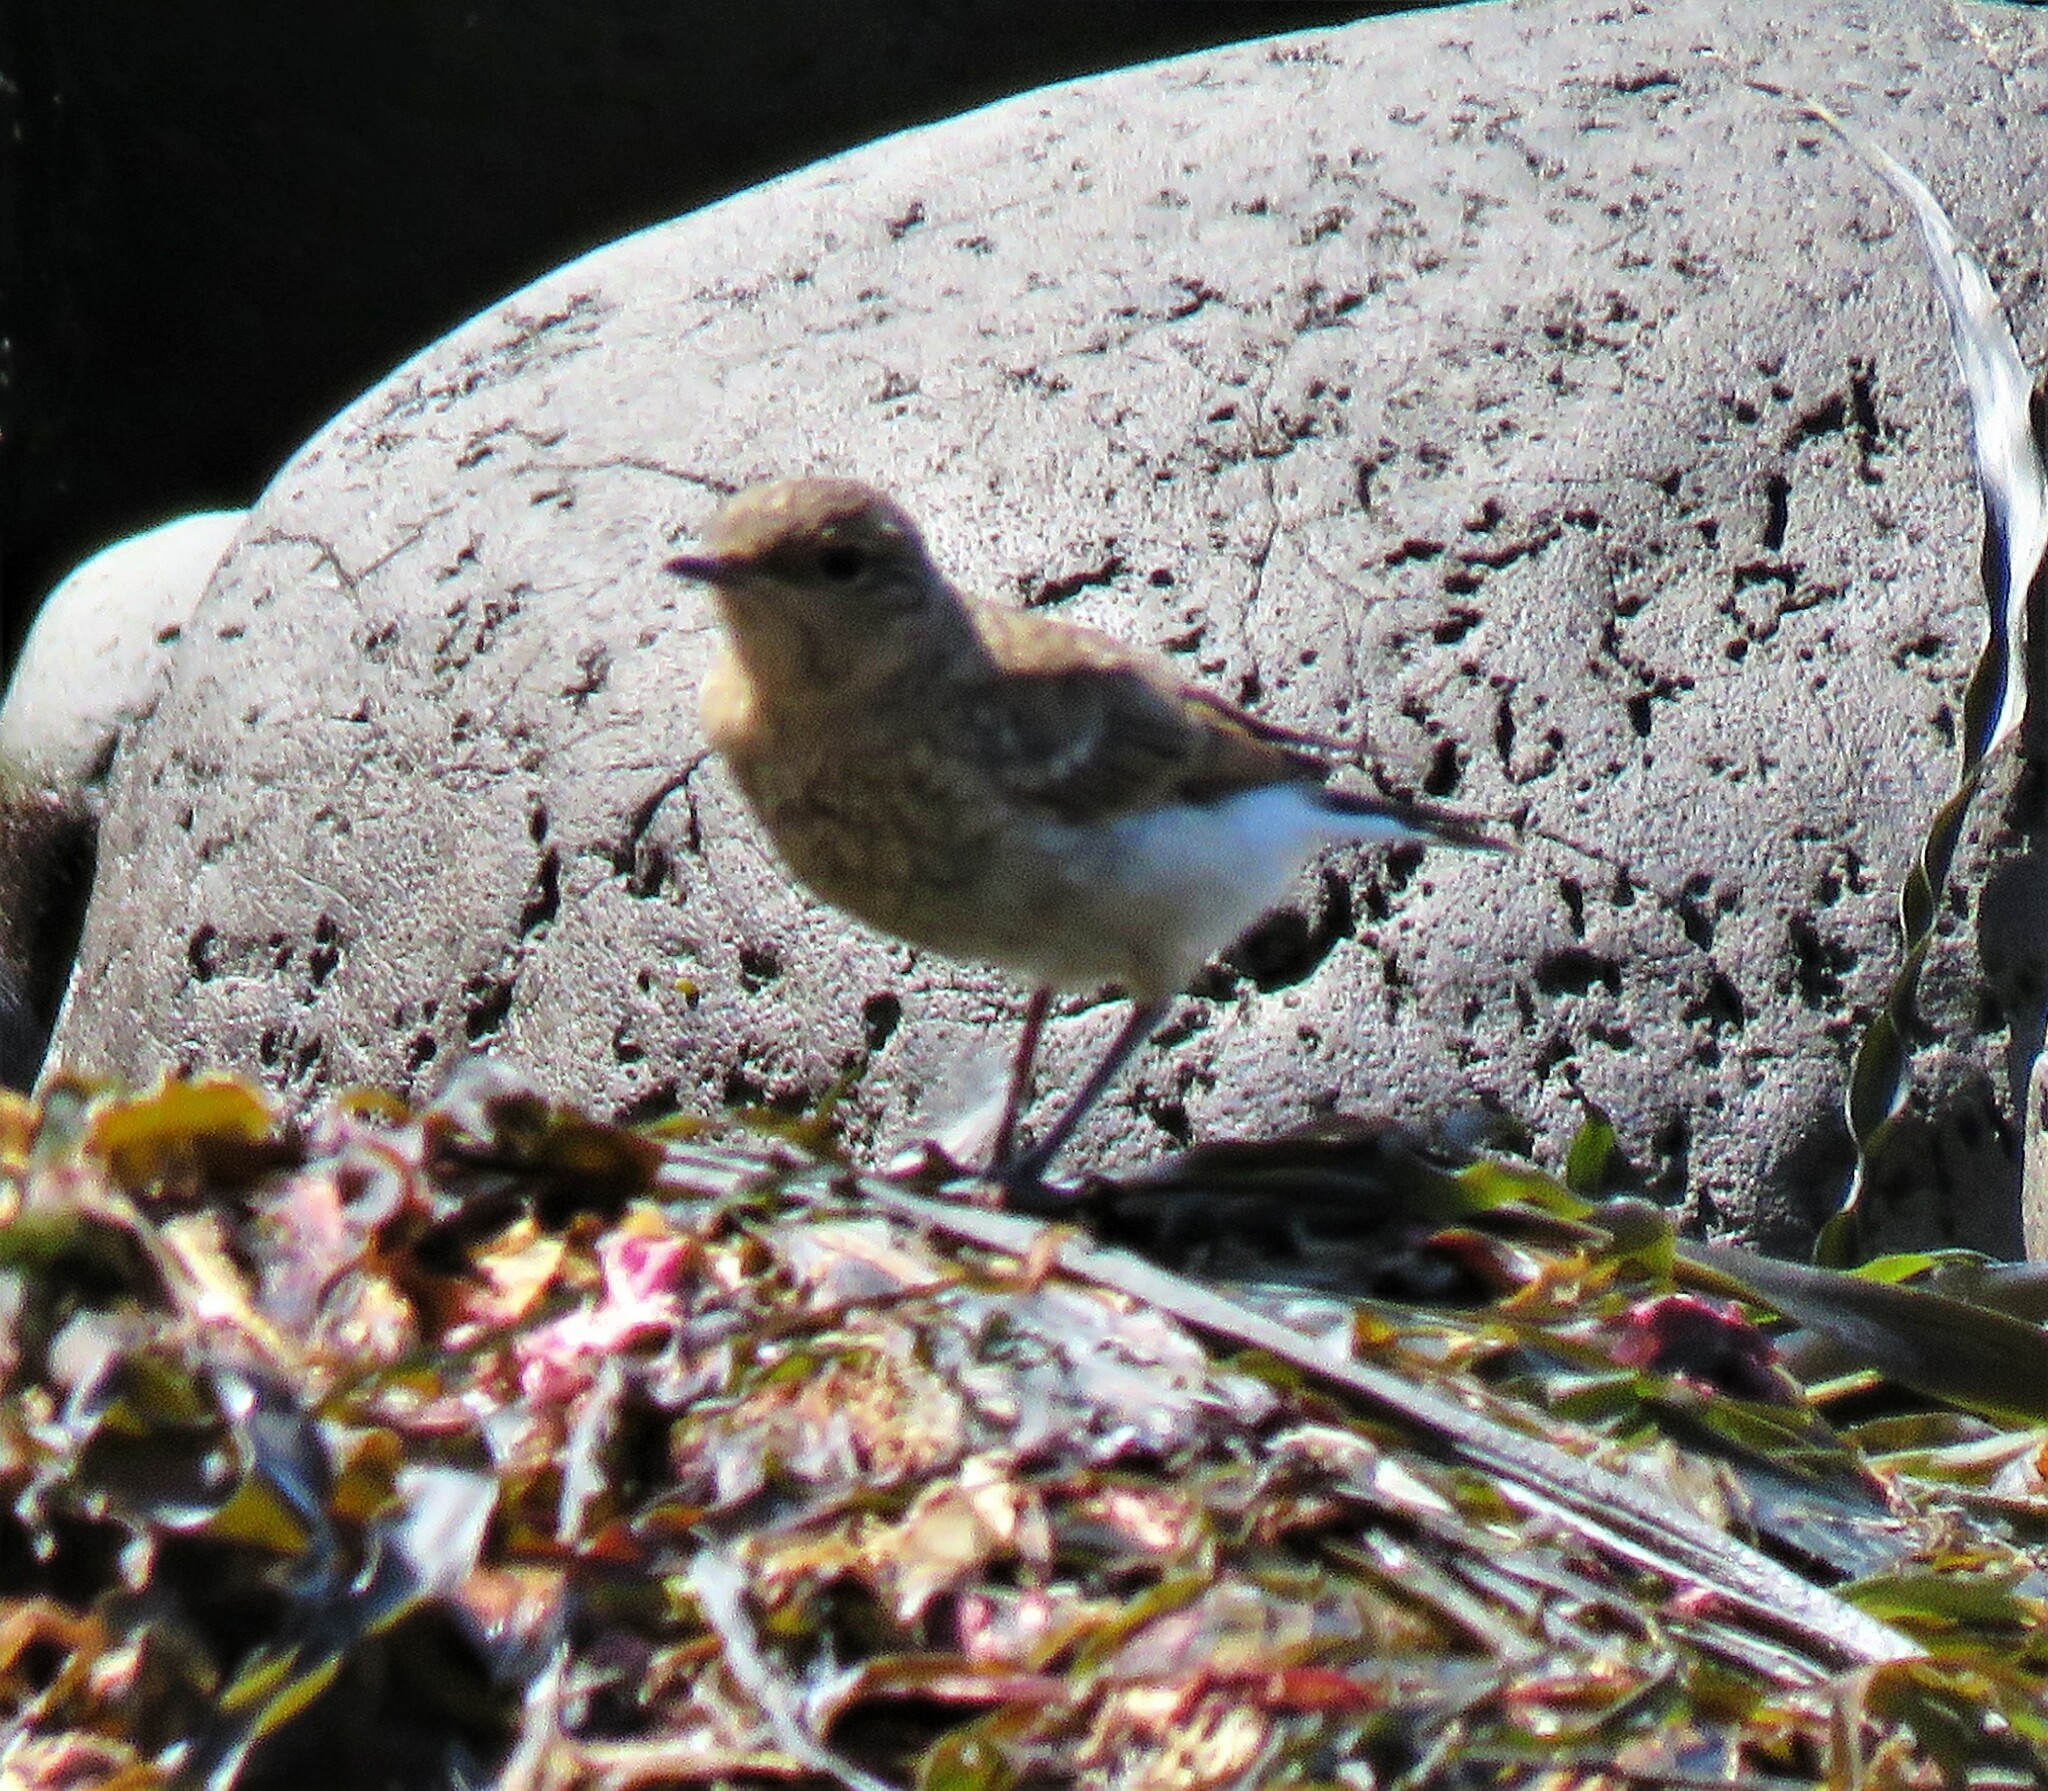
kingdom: Animalia
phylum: Chordata
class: Aves
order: Passeriformes
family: Muscicapidae
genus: Oenanthe
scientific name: Oenanthe oenanthe
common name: Northern wheatear
